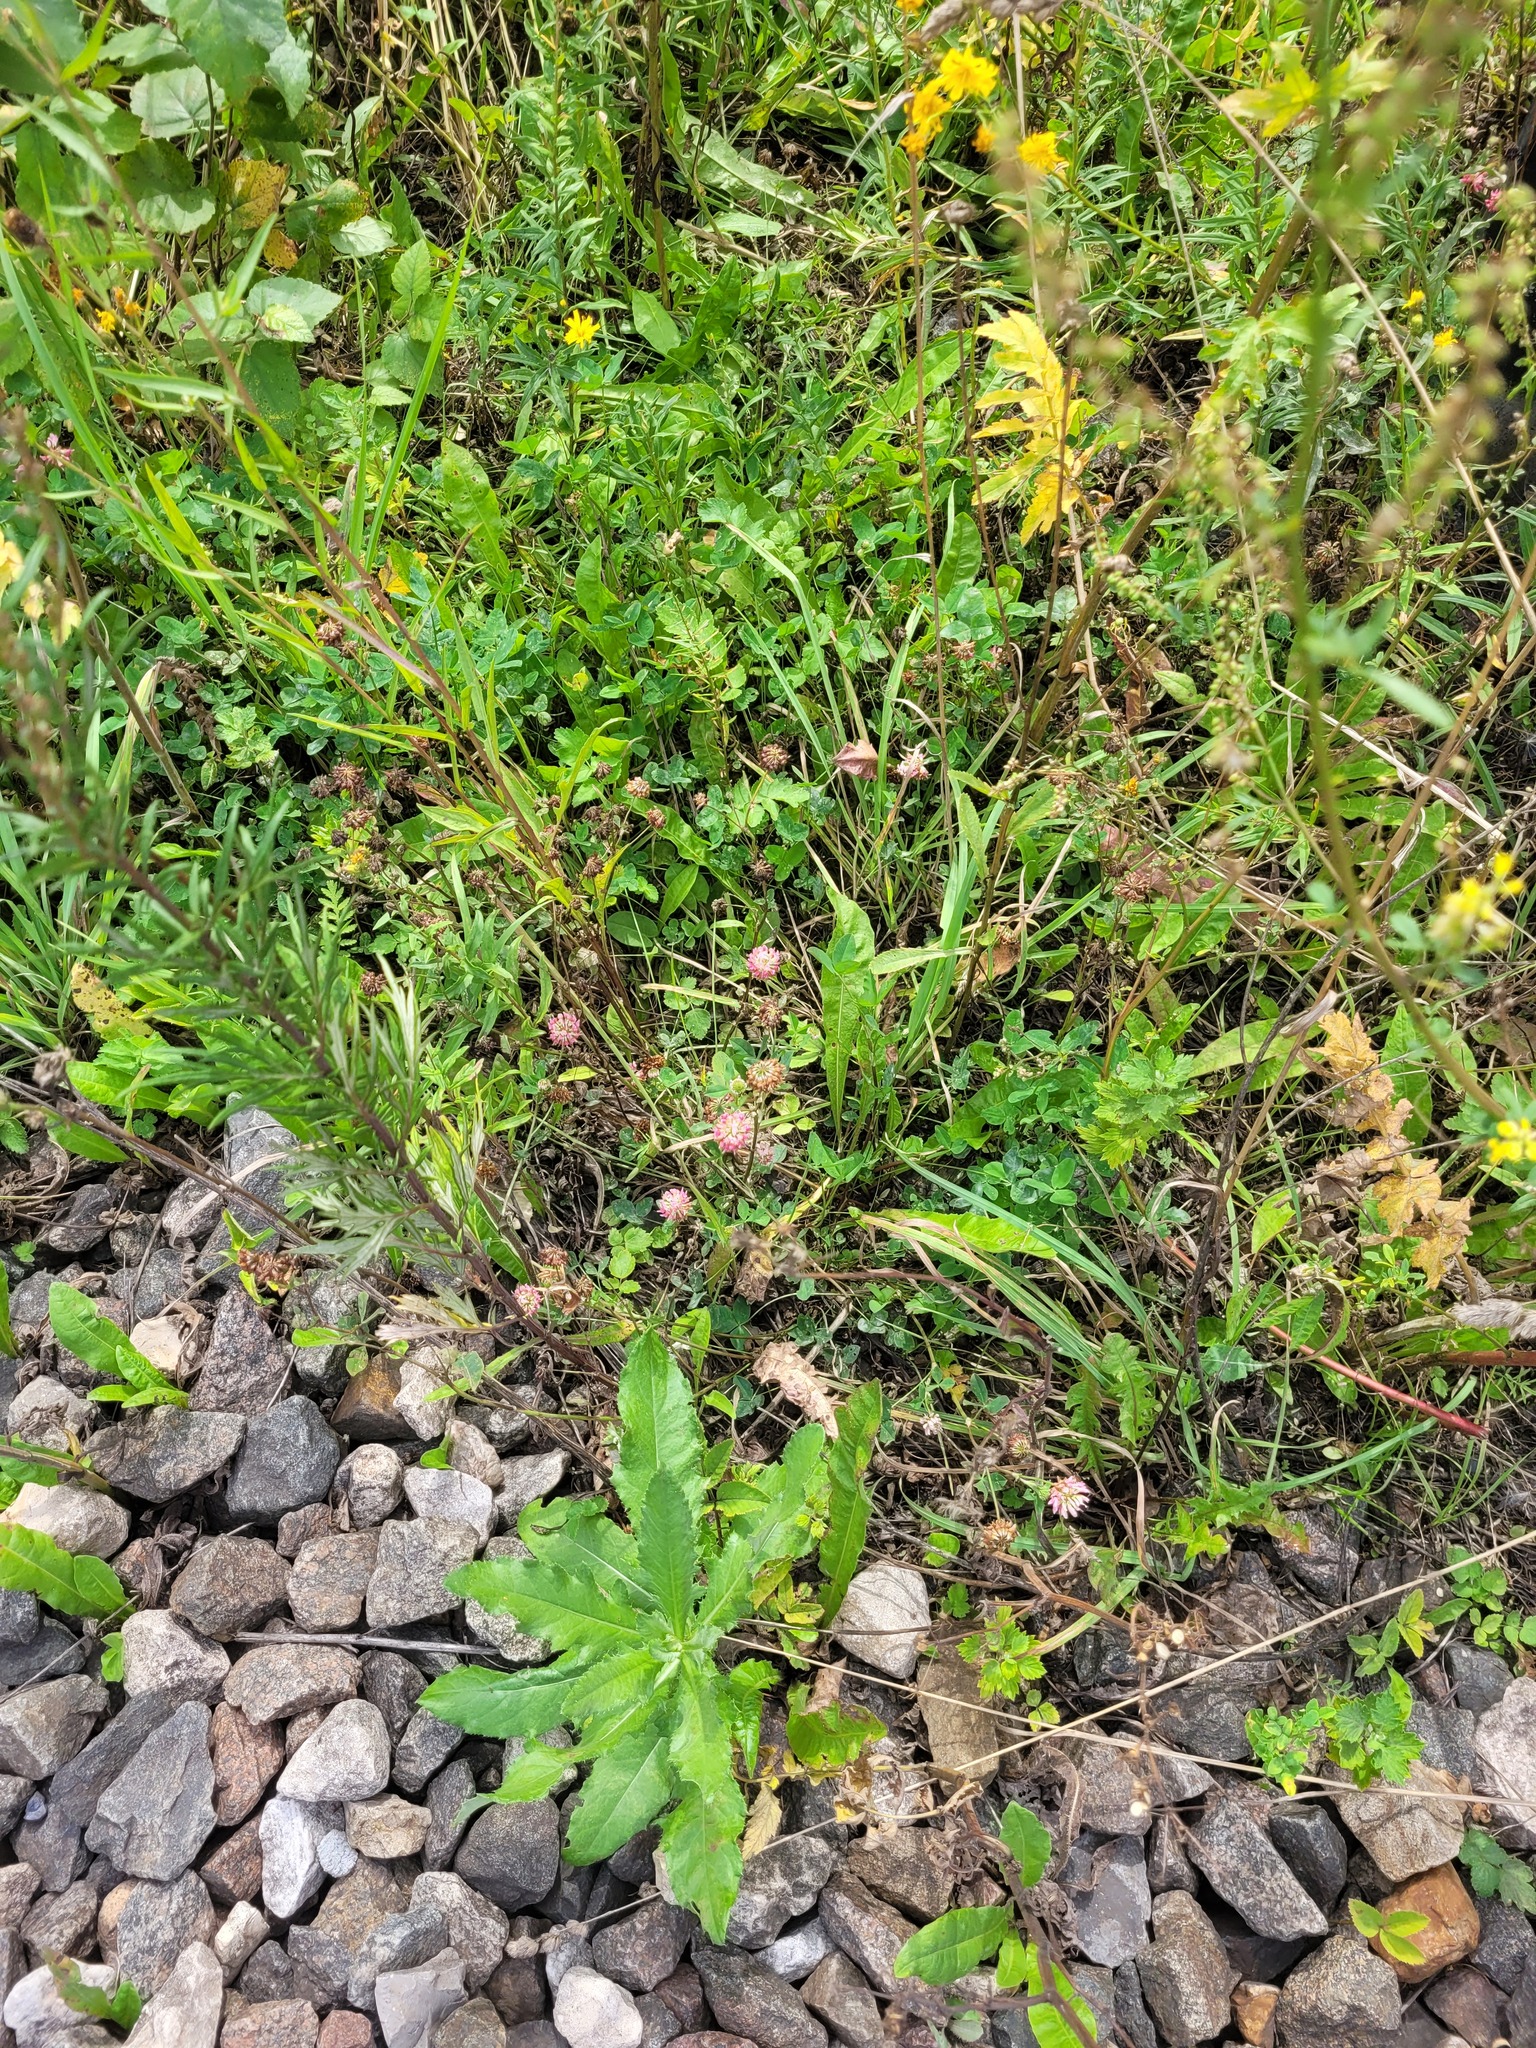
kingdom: Plantae
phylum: Tracheophyta
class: Magnoliopsida
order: Fabales
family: Fabaceae
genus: Trifolium
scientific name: Trifolium hybridum
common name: Alsike clover
